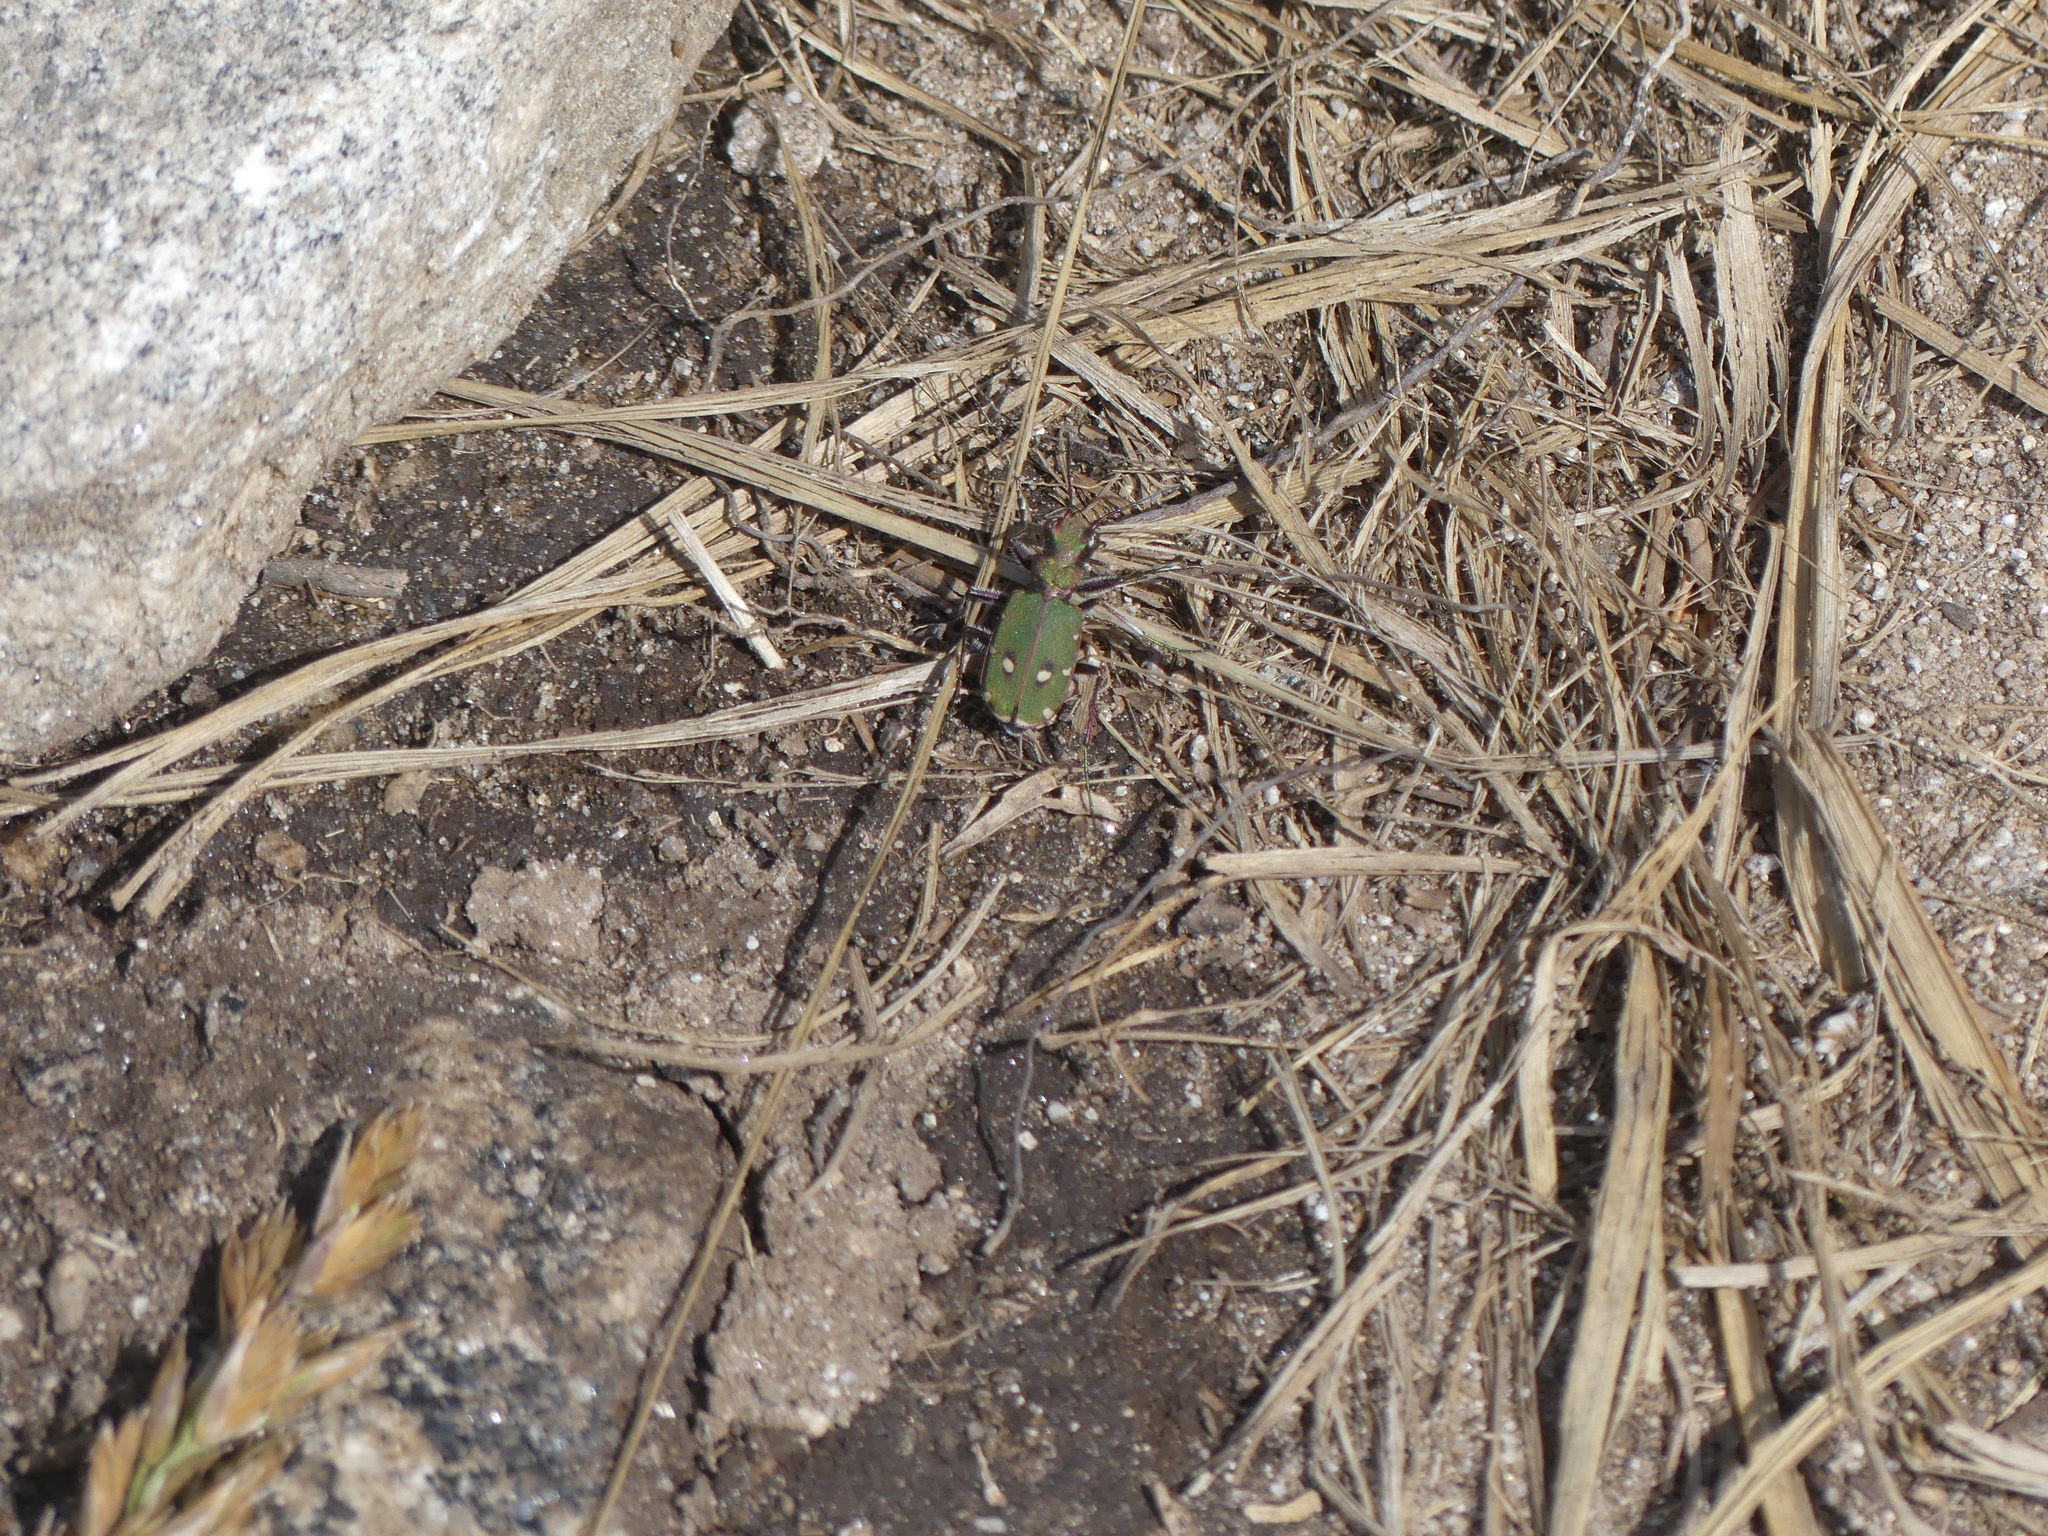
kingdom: Animalia
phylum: Arthropoda
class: Insecta
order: Coleoptera
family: Carabidae
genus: Cicindela
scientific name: Cicindela campestris
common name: Common tiger beetle
